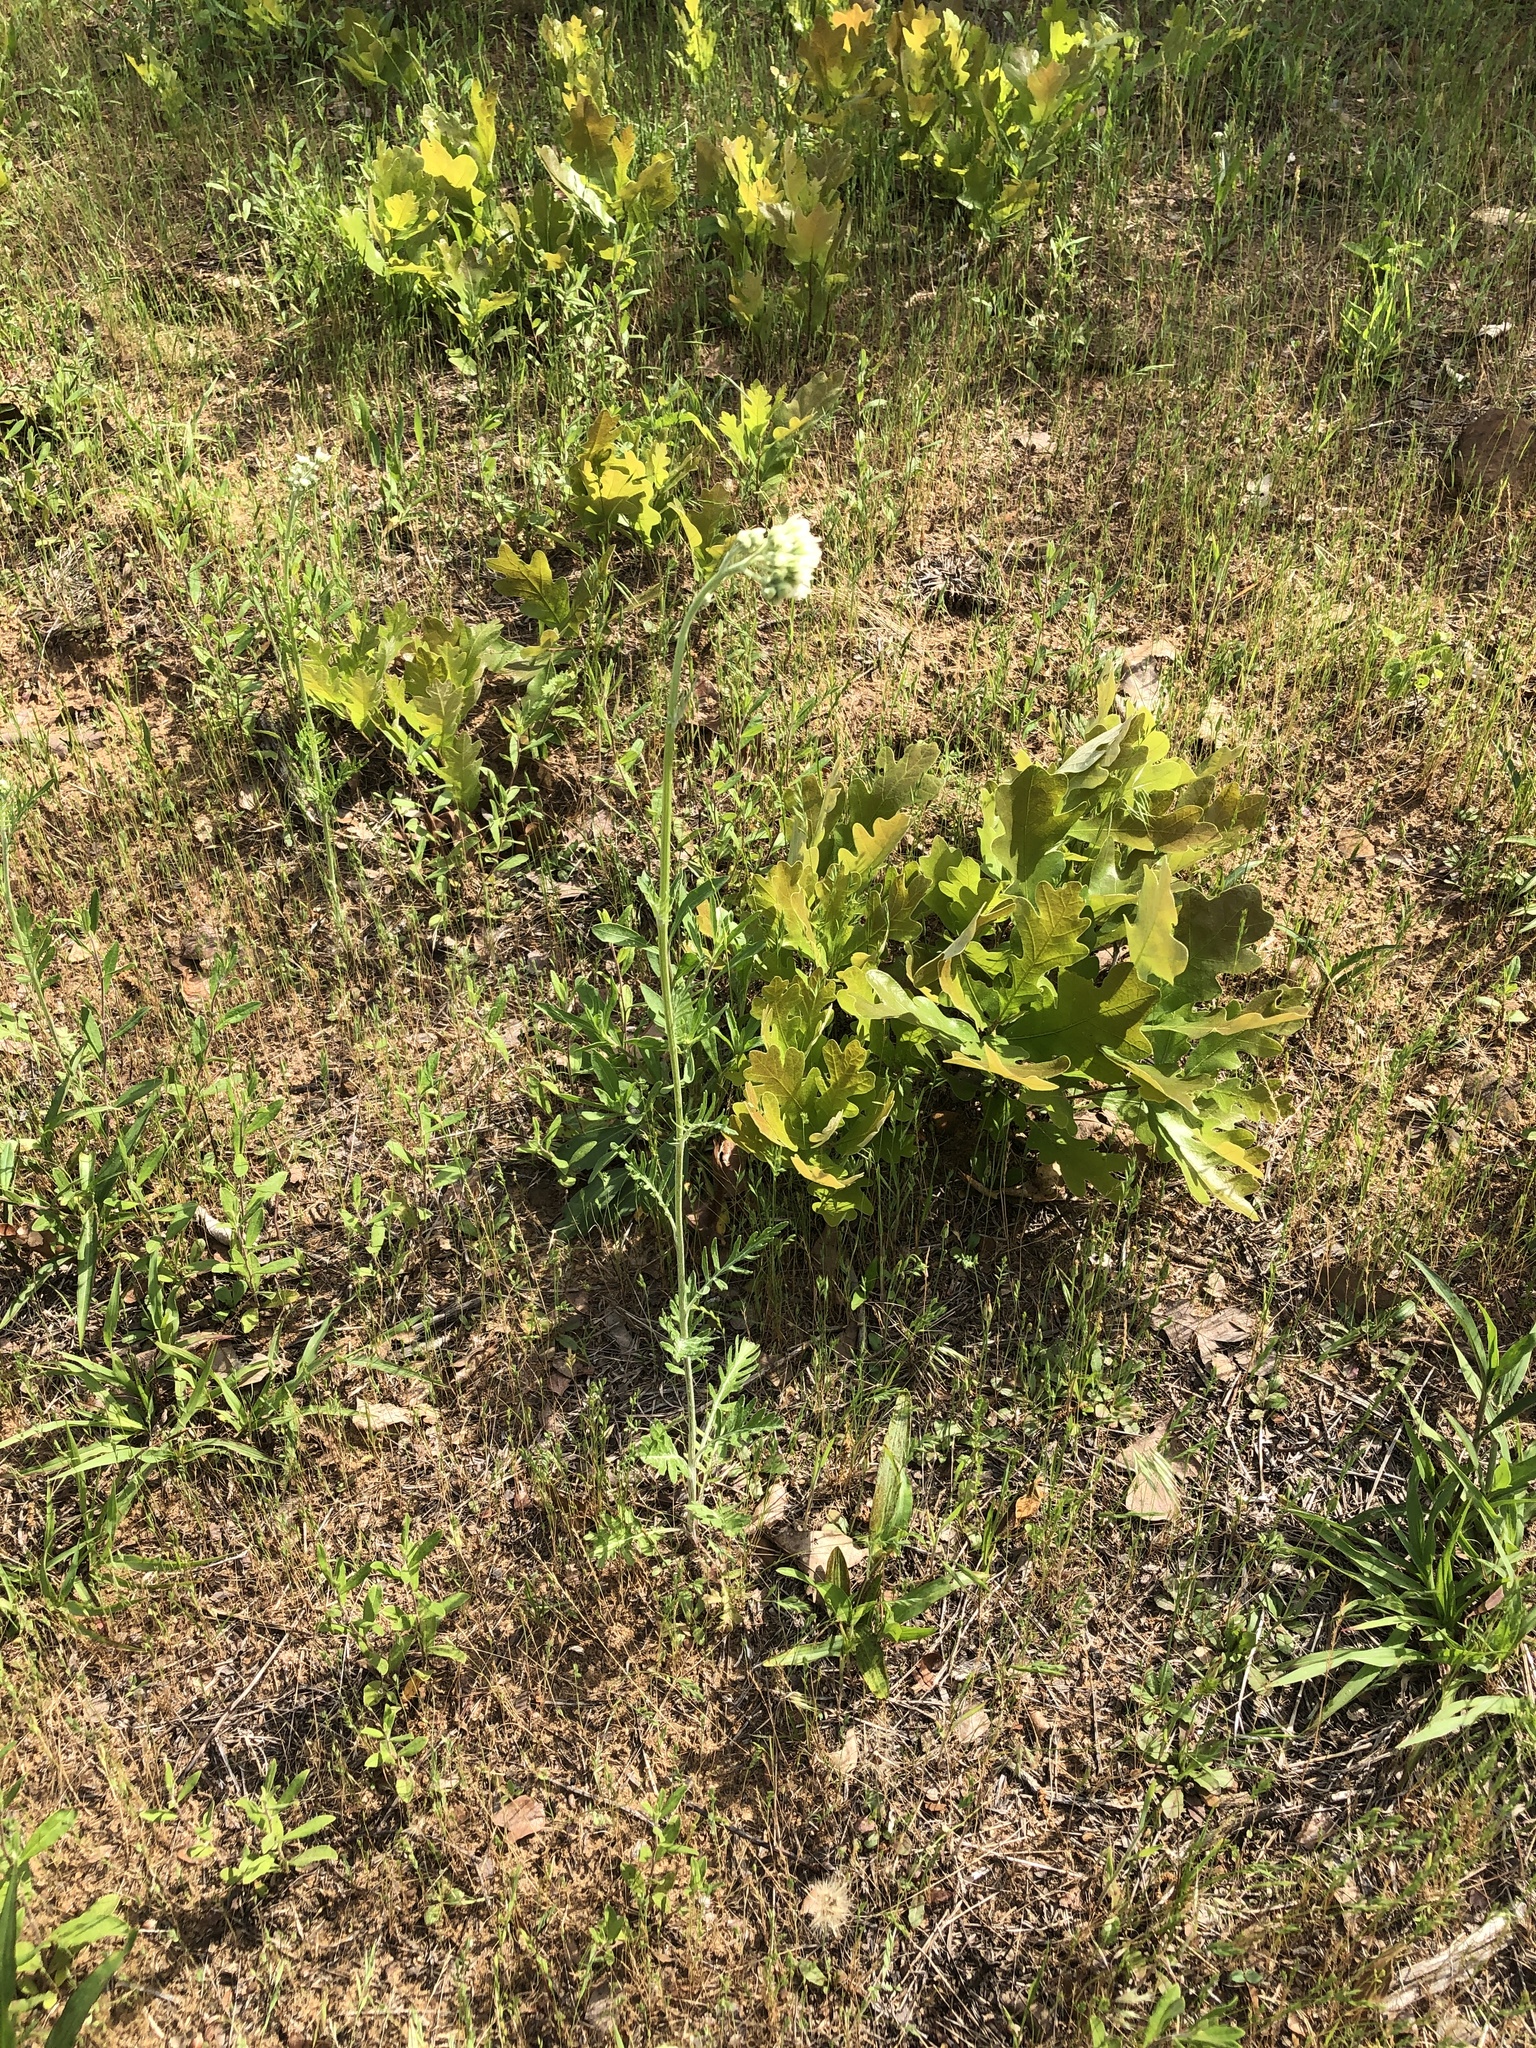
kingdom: Plantae
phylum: Tracheophyta
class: Magnoliopsida
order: Asterales
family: Asteraceae
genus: Hymenopappus
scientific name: Hymenopappus artemisiifolius
